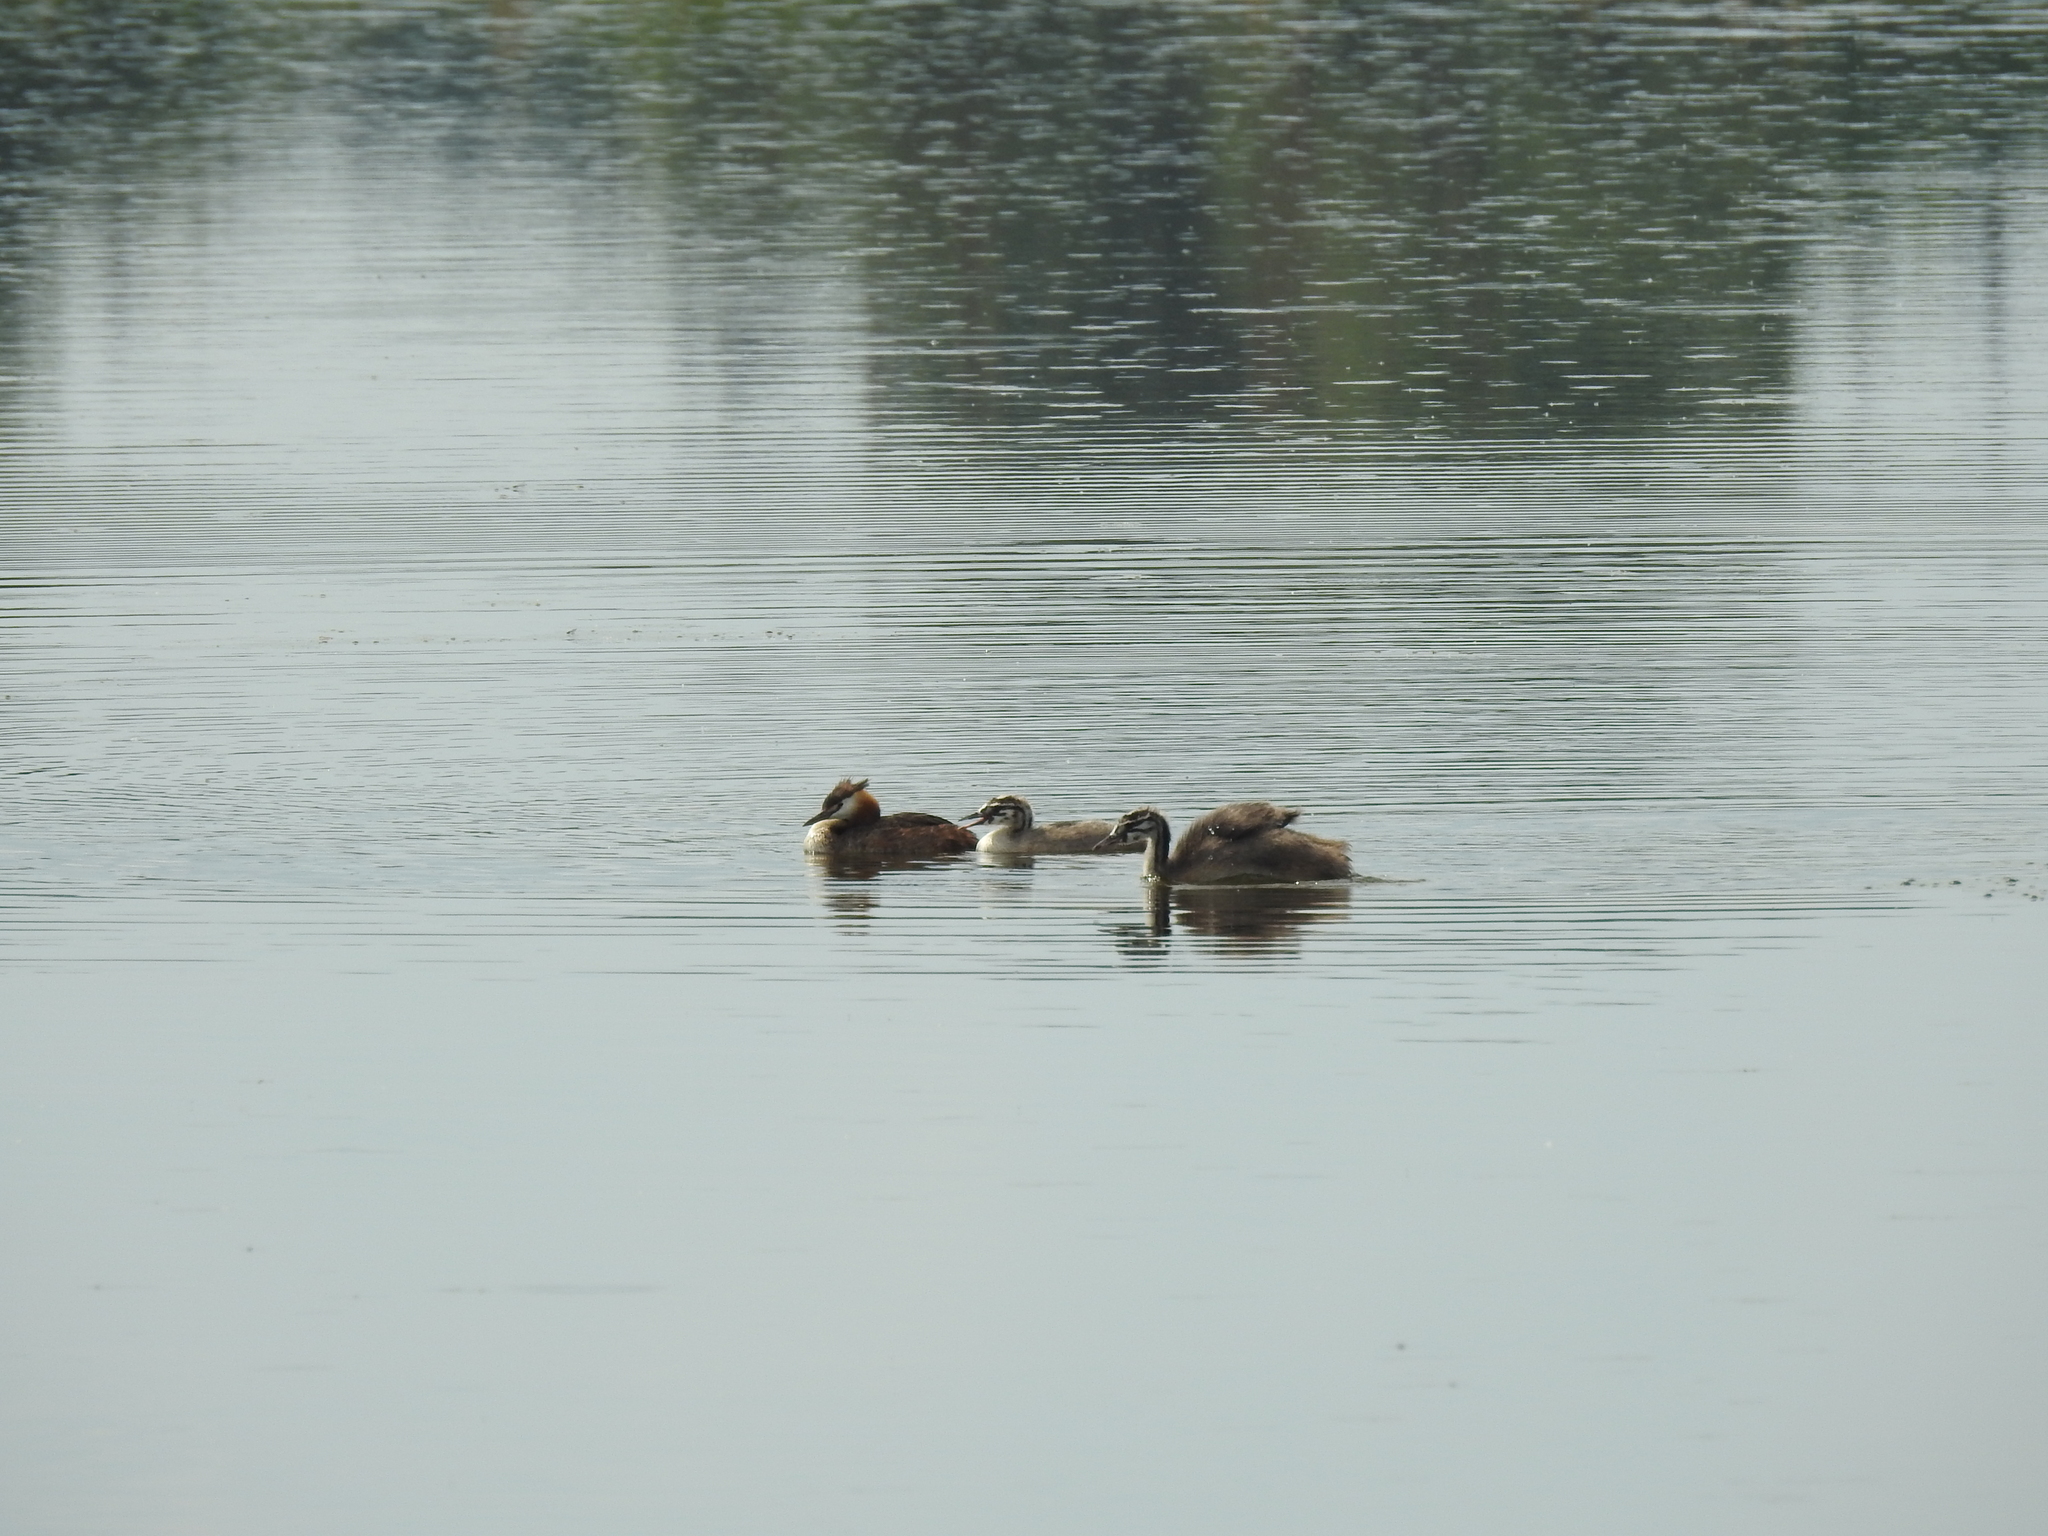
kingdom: Animalia
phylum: Chordata
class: Aves
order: Podicipediformes
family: Podicipedidae
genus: Podiceps
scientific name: Podiceps cristatus
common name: Great crested grebe
